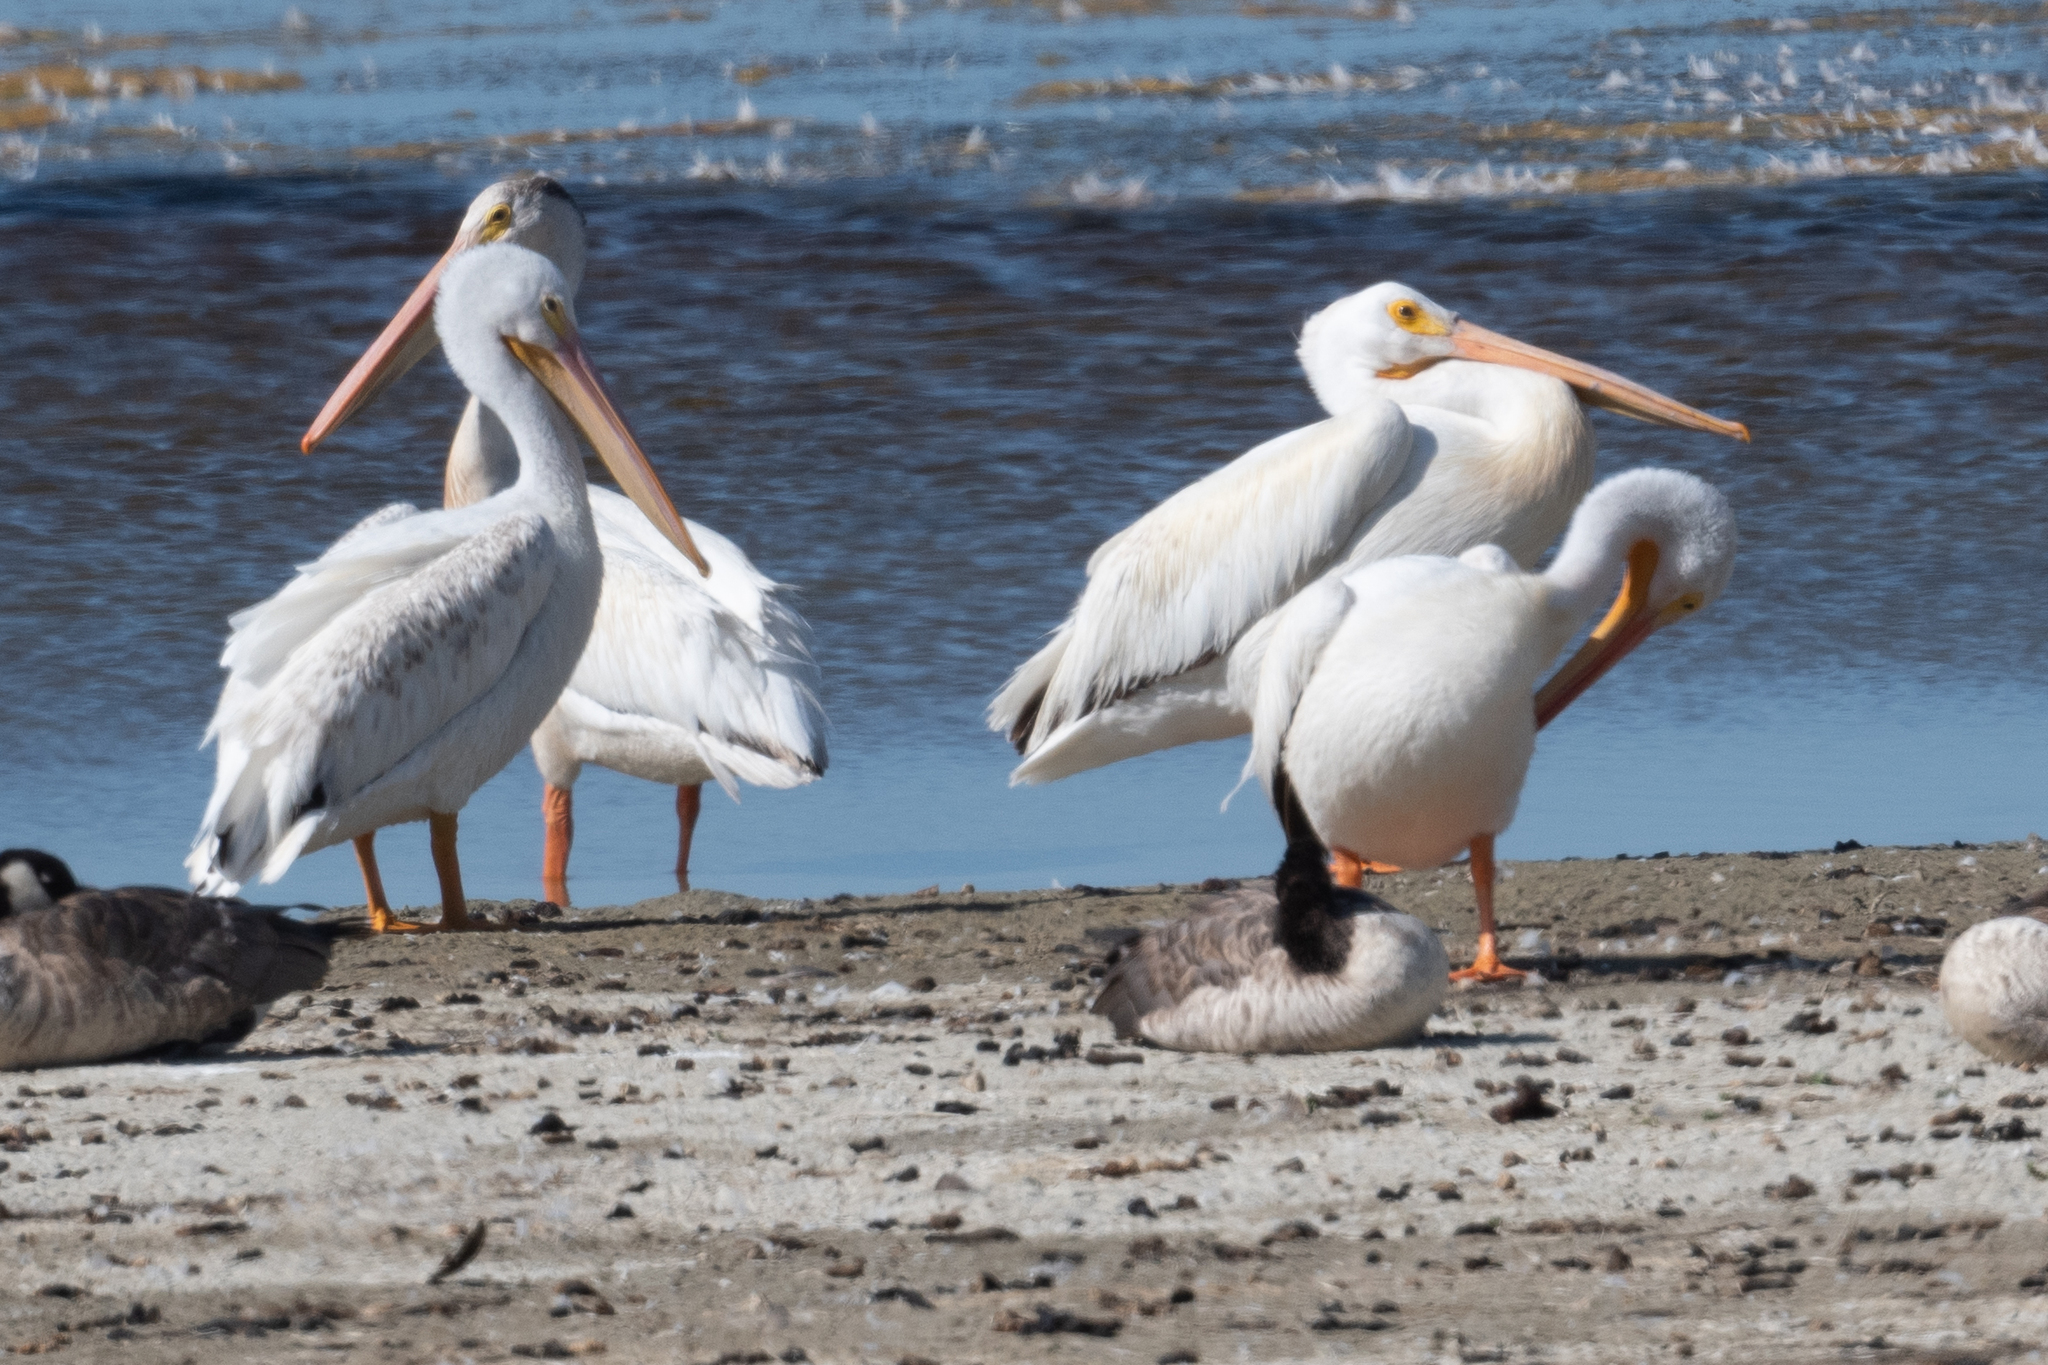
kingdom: Animalia
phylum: Chordata
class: Aves
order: Pelecaniformes
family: Pelecanidae
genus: Pelecanus
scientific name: Pelecanus erythrorhynchos
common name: American white pelican
